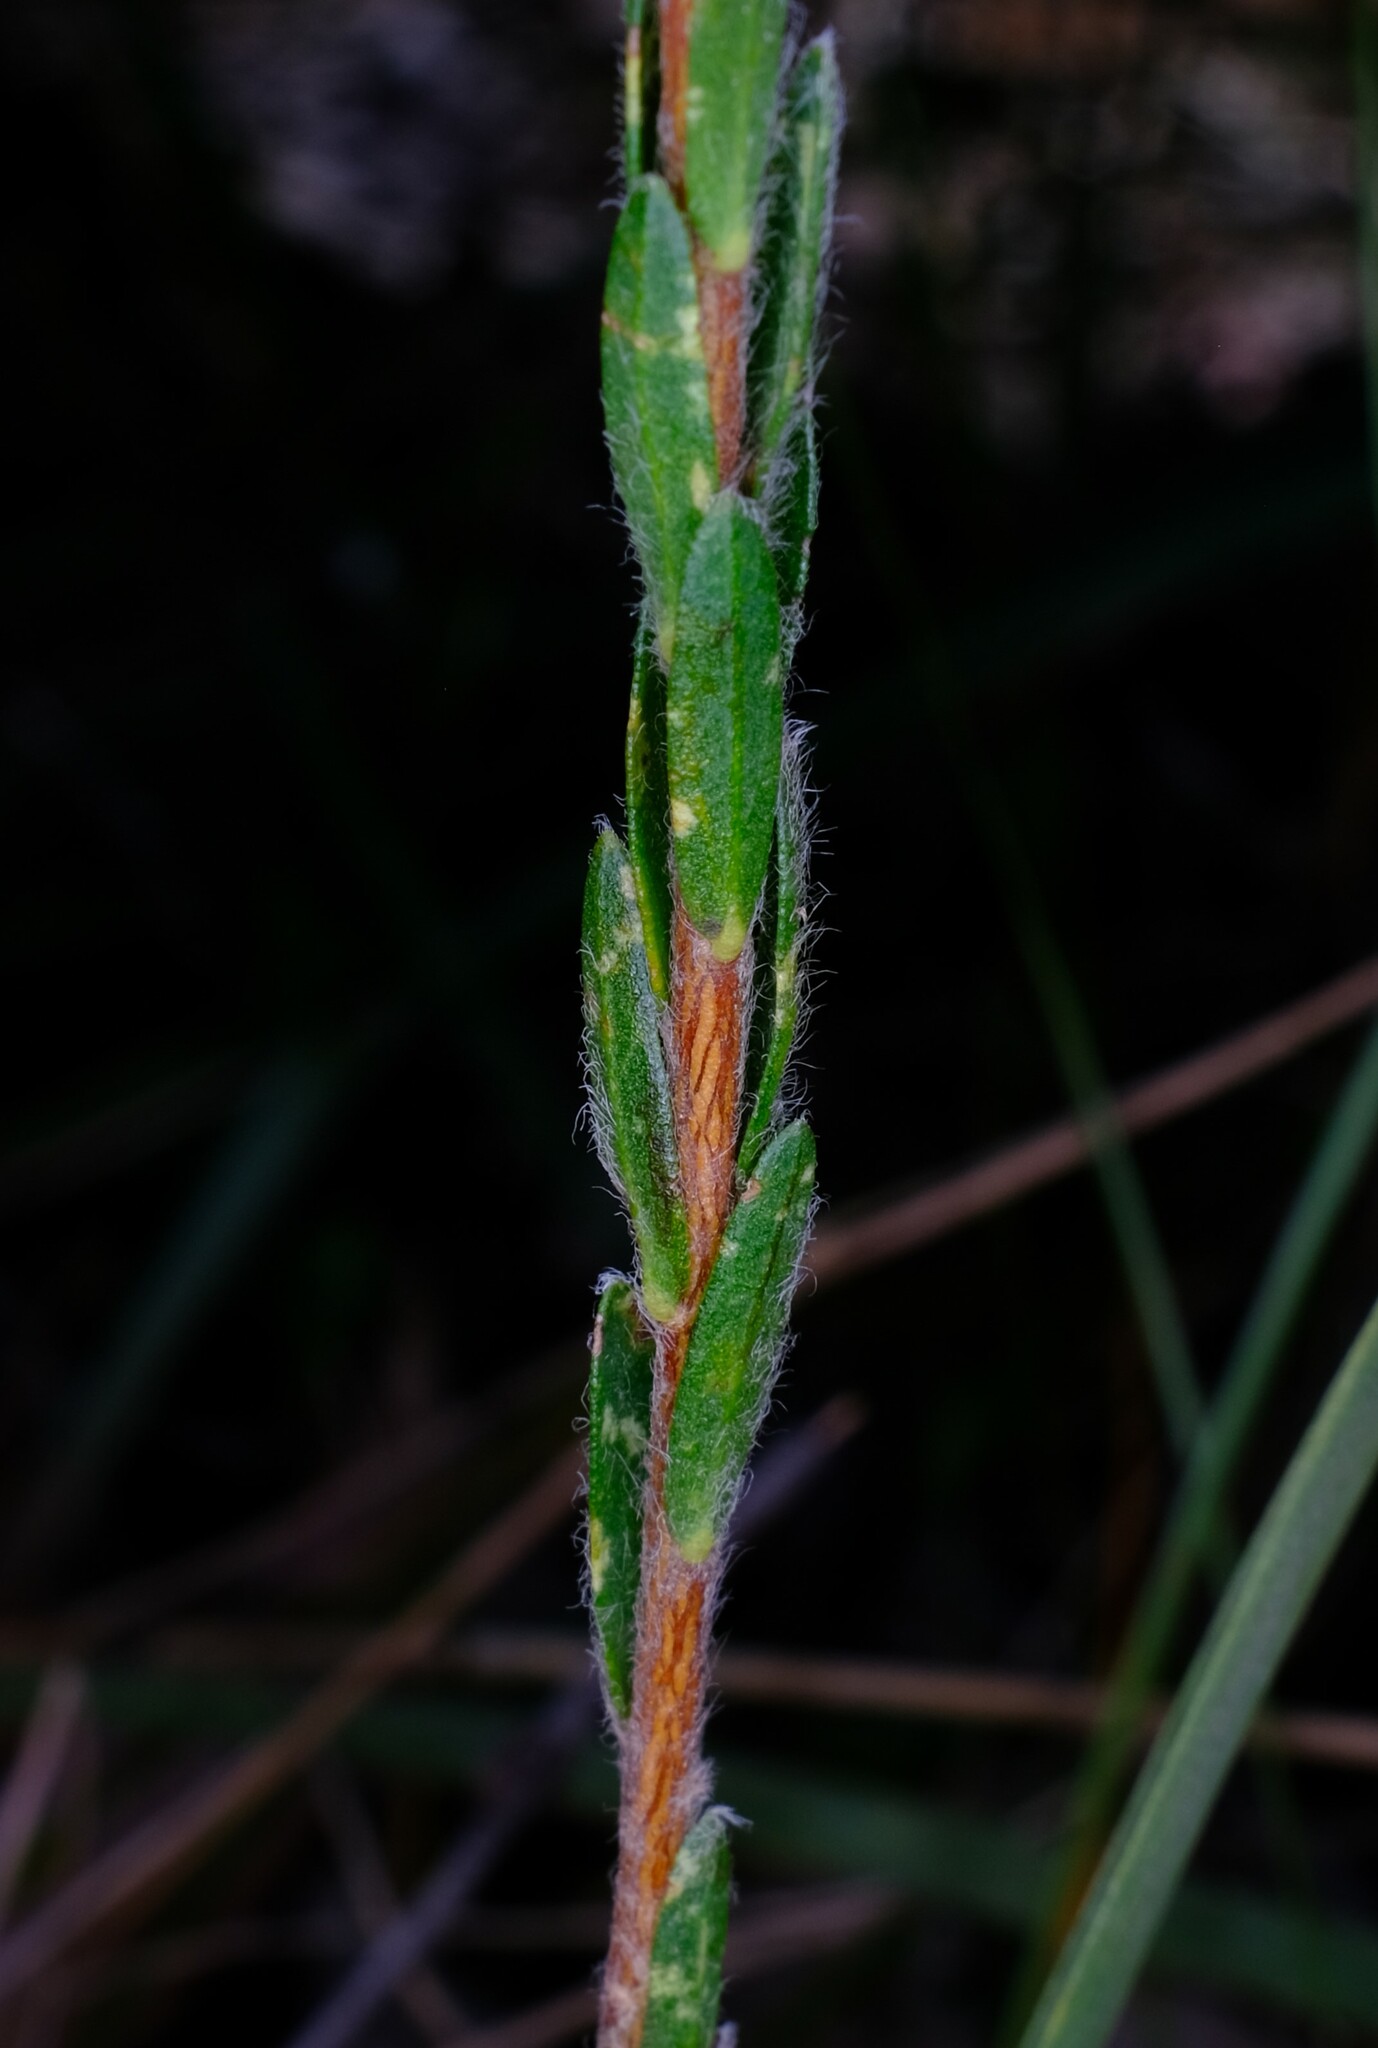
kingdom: Plantae
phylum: Tracheophyta
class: Magnoliopsida
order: Malvales
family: Thymelaeaceae
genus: Pimelea
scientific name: Pimelea octophylla
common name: Woolly riceflower
